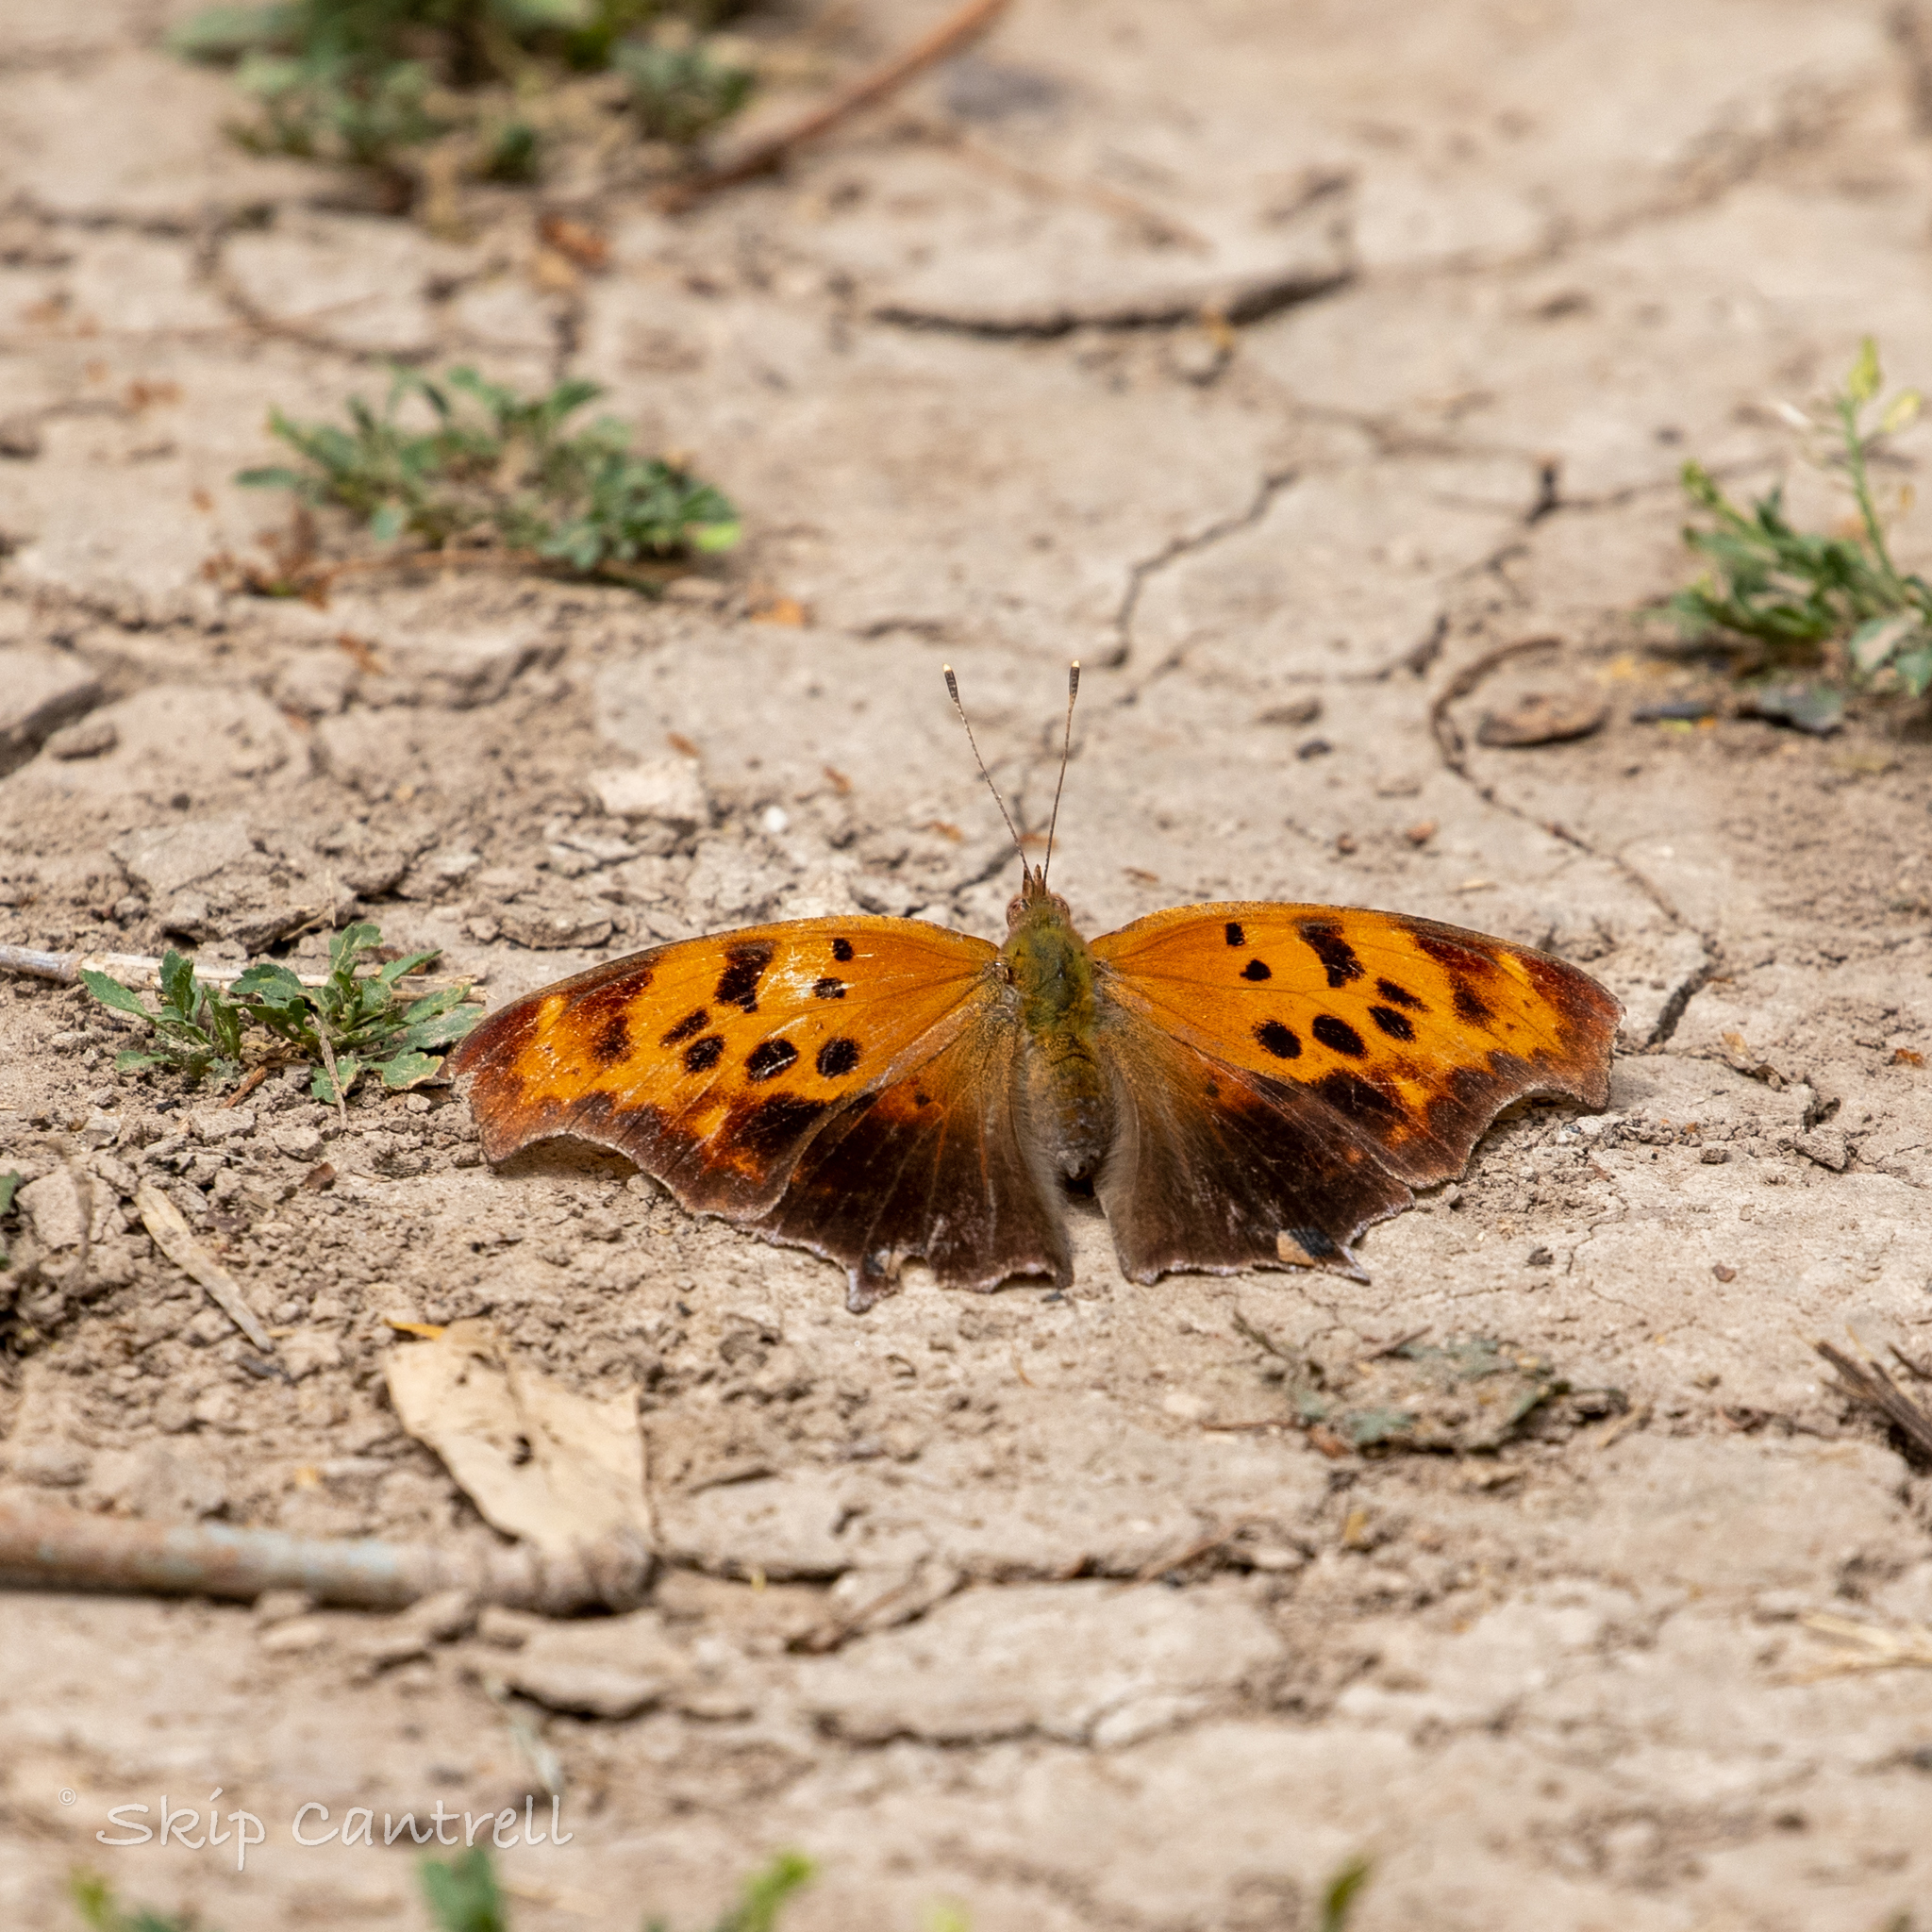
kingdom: Animalia
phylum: Arthropoda
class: Insecta
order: Lepidoptera
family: Nymphalidae
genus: Polygonia
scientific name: Polygonia interrogationis
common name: Question mark
